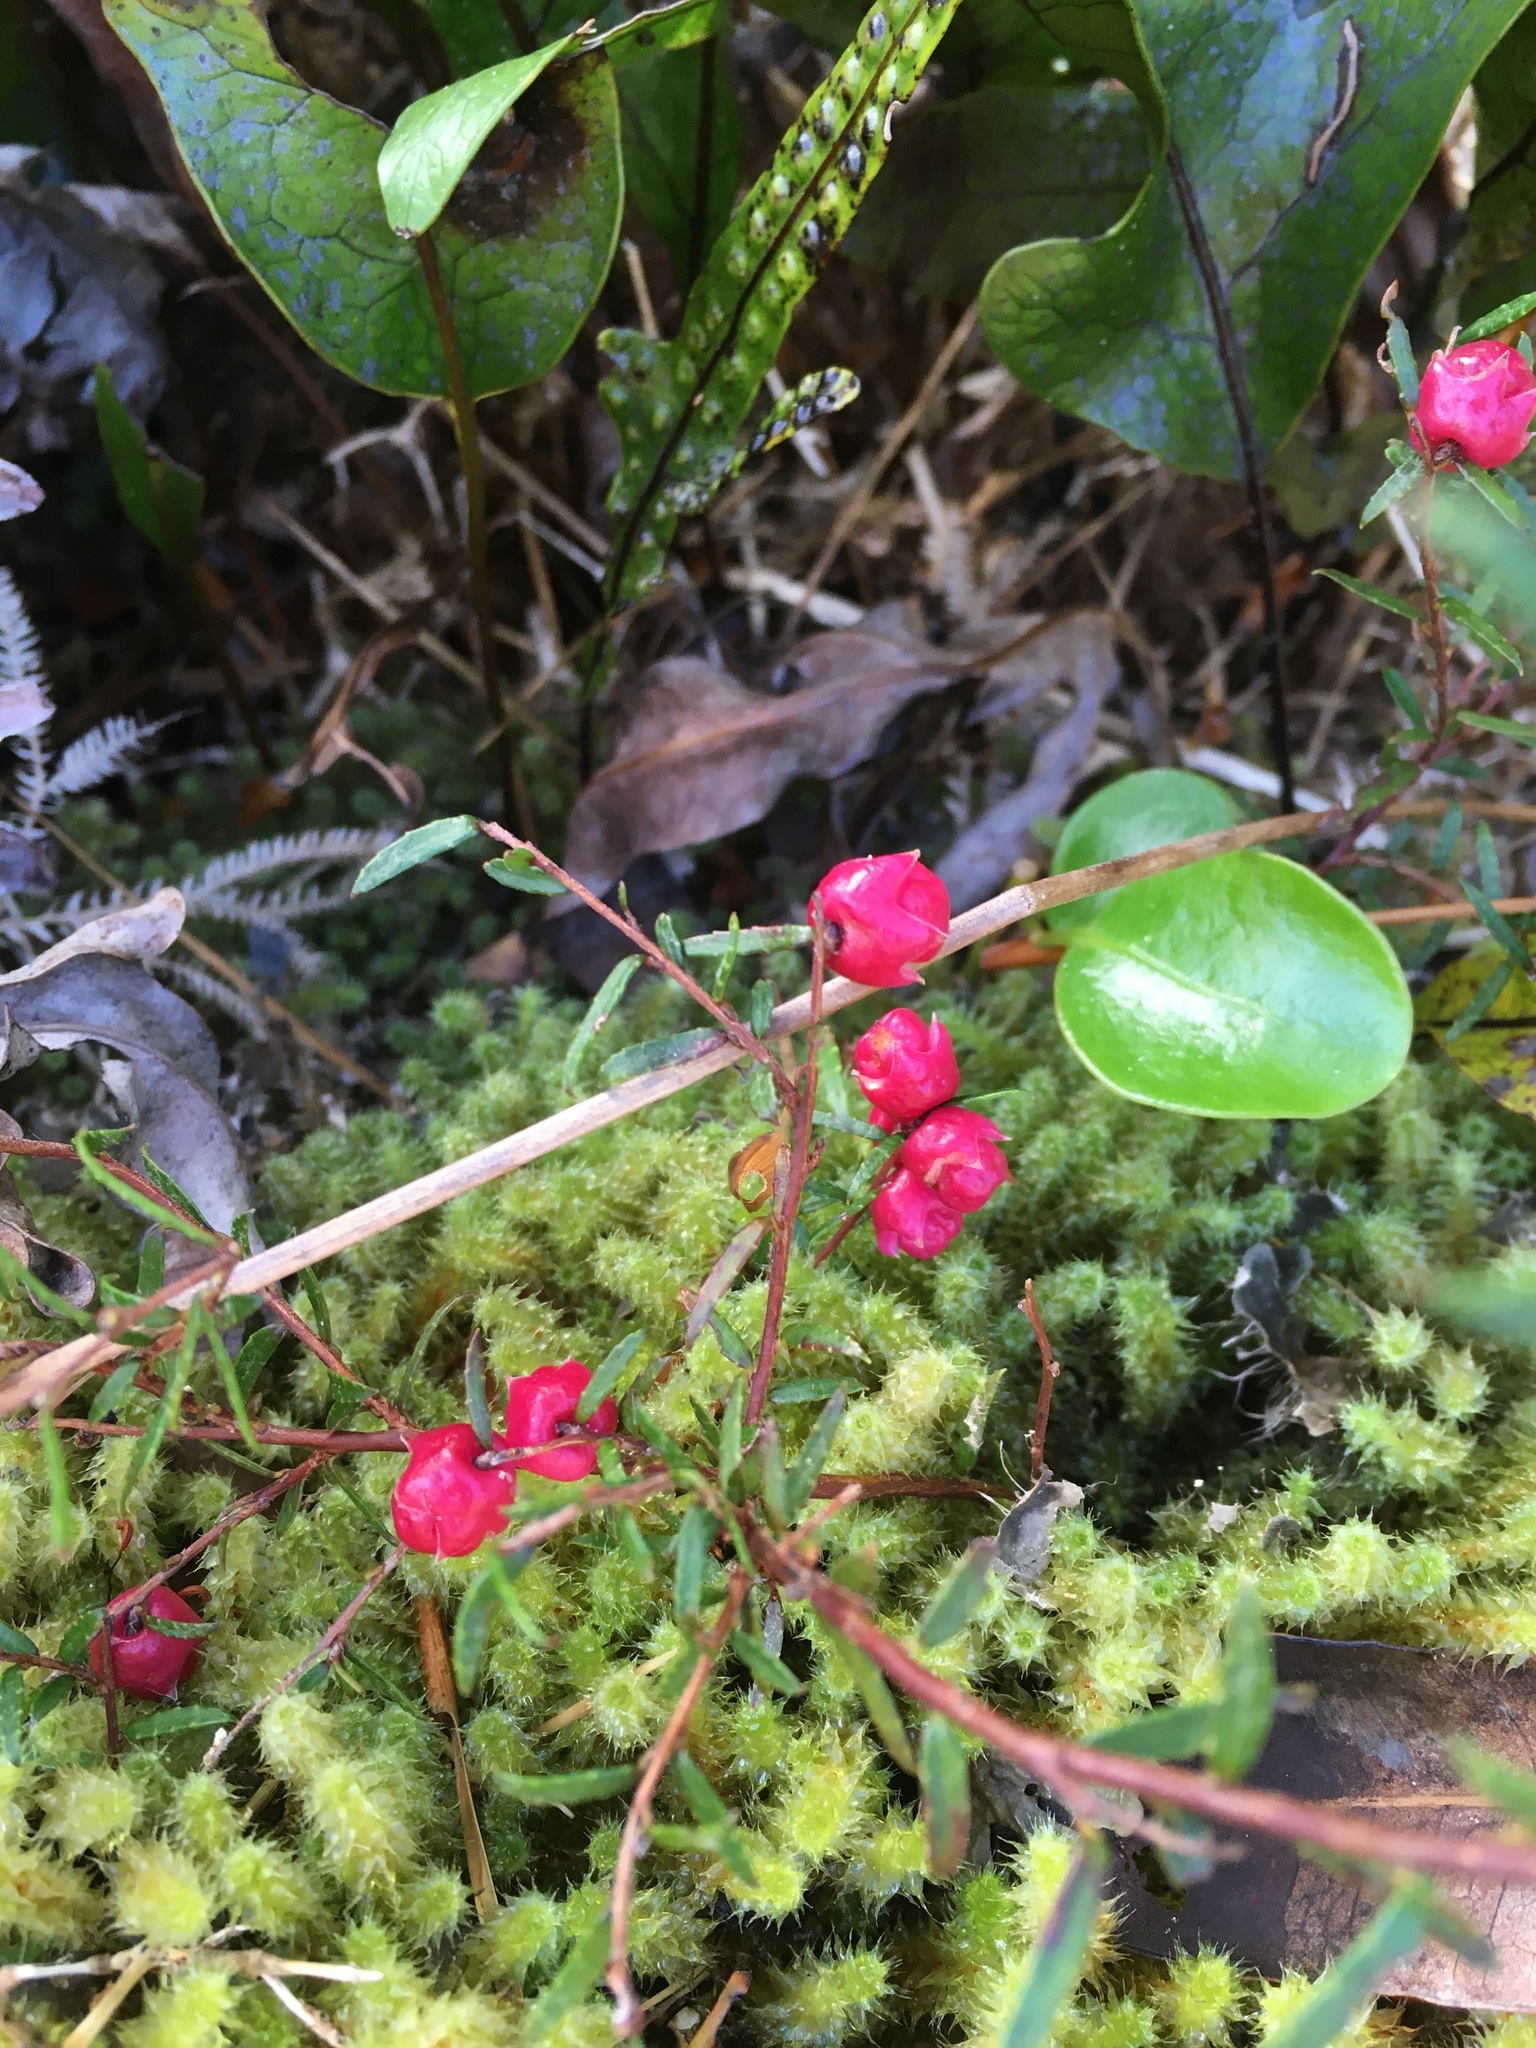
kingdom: Plantae
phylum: Tracheophyta
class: Magnoliopsida
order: Ericales
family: Ericaceae
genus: Gaultheria
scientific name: Gaultheria macrostigma
